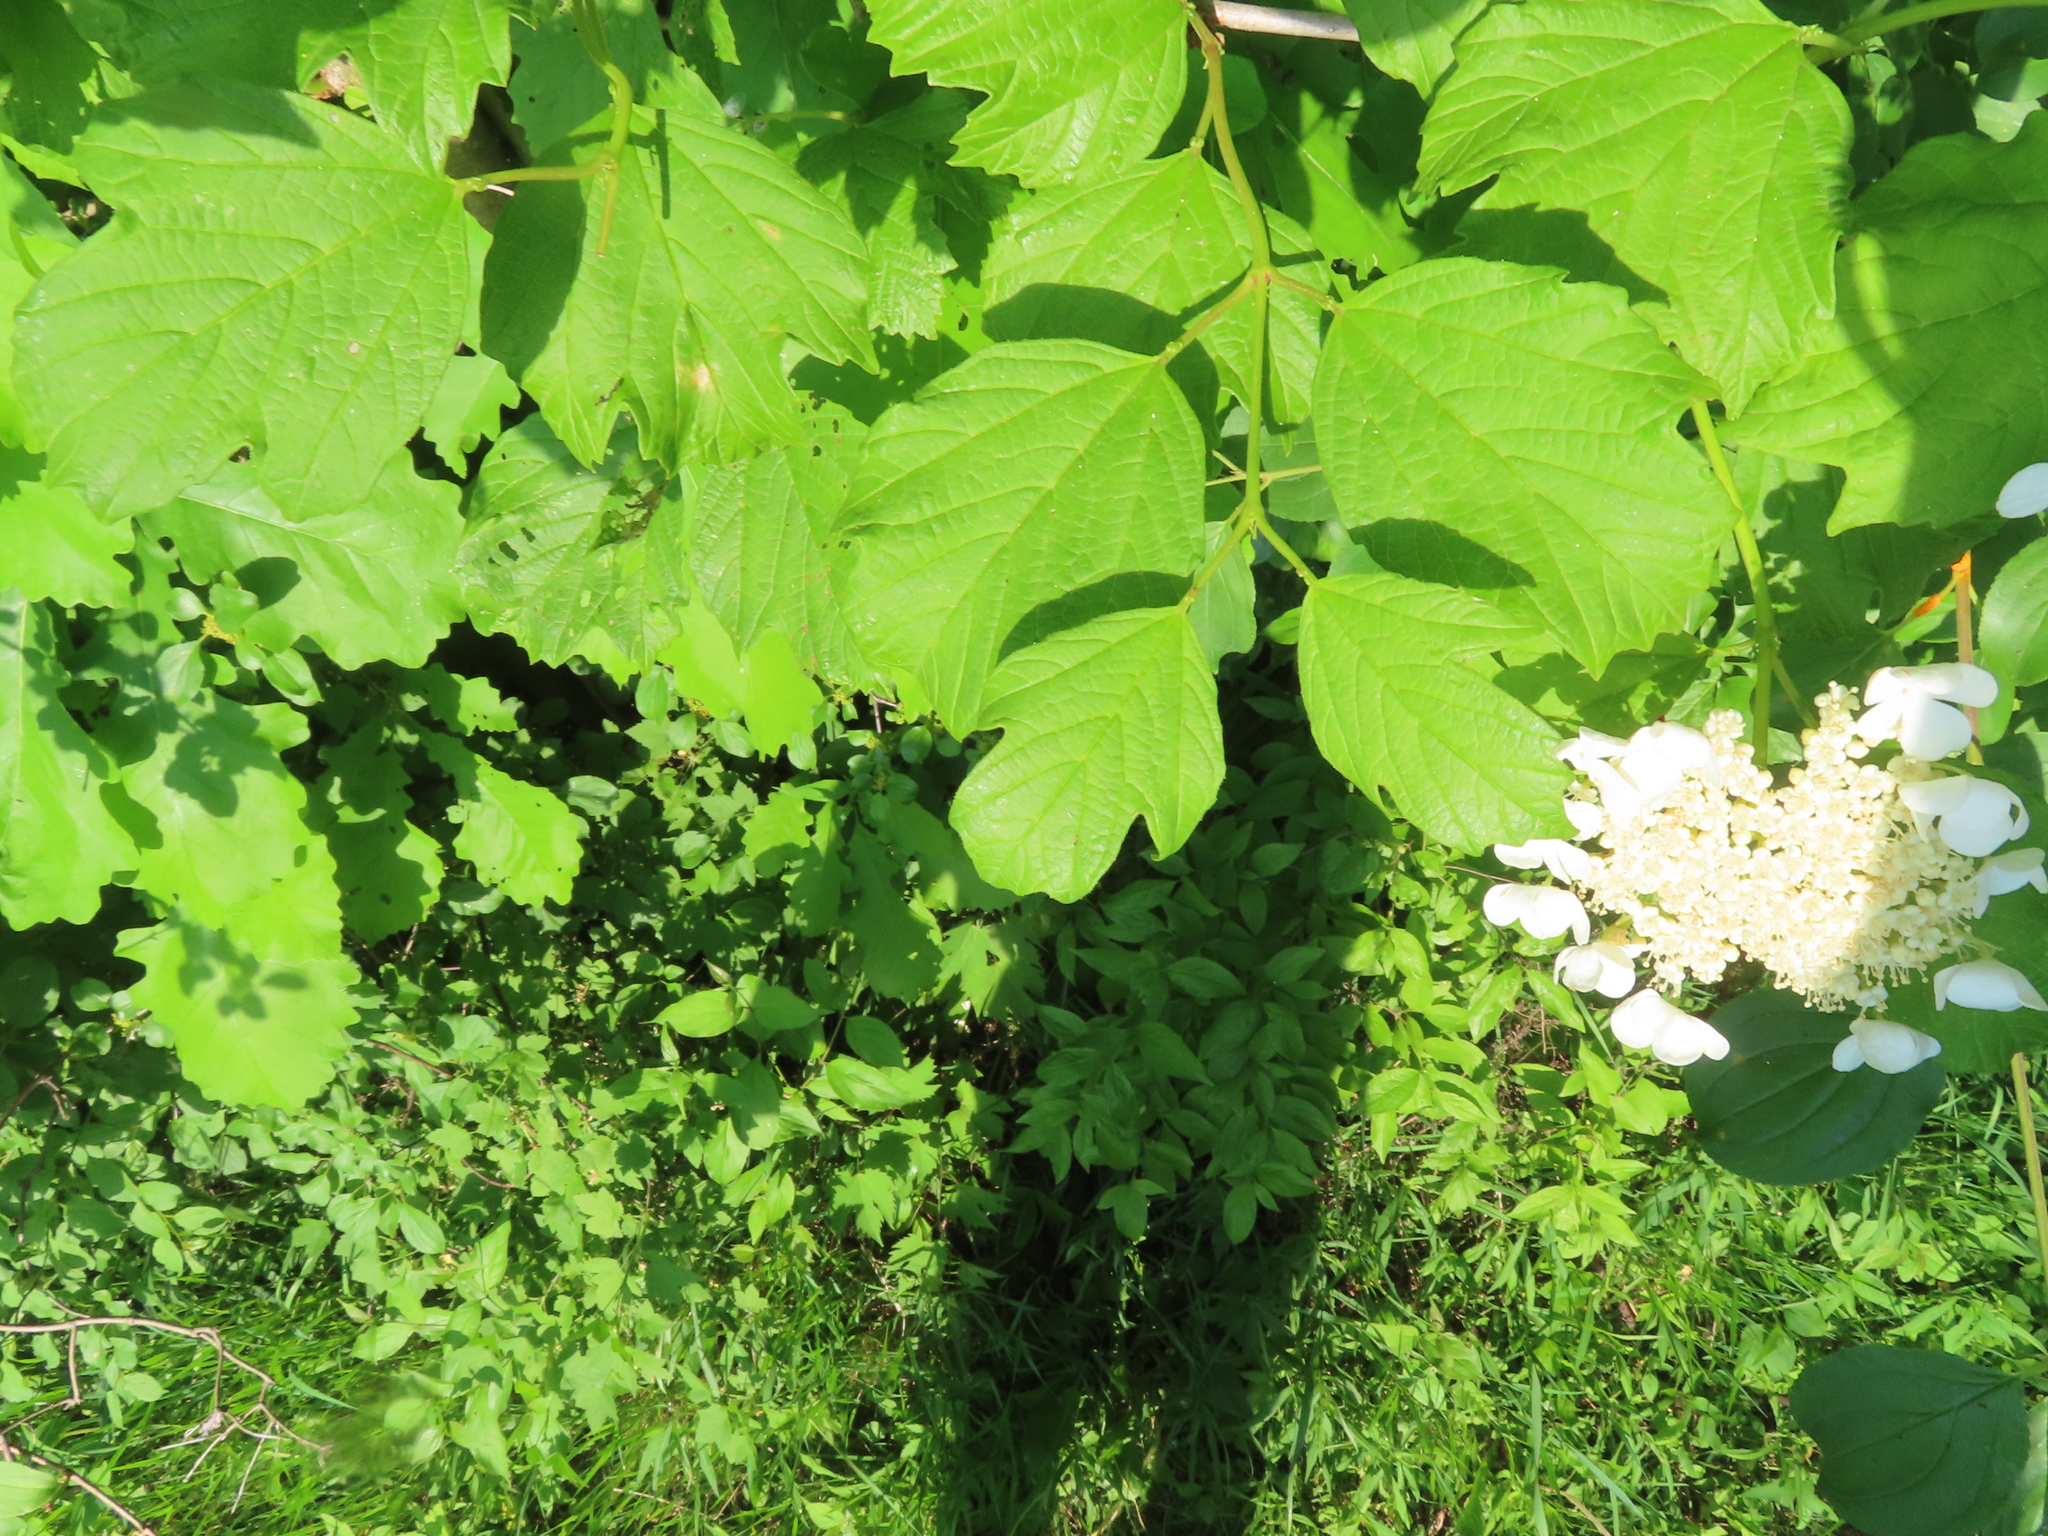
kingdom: Plantae
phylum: Tracheophyta
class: Magnoliopsida
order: Dipsacales
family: Viburnaceae
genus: Viburnum
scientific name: Viburnum opulus
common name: Guelder-rose
